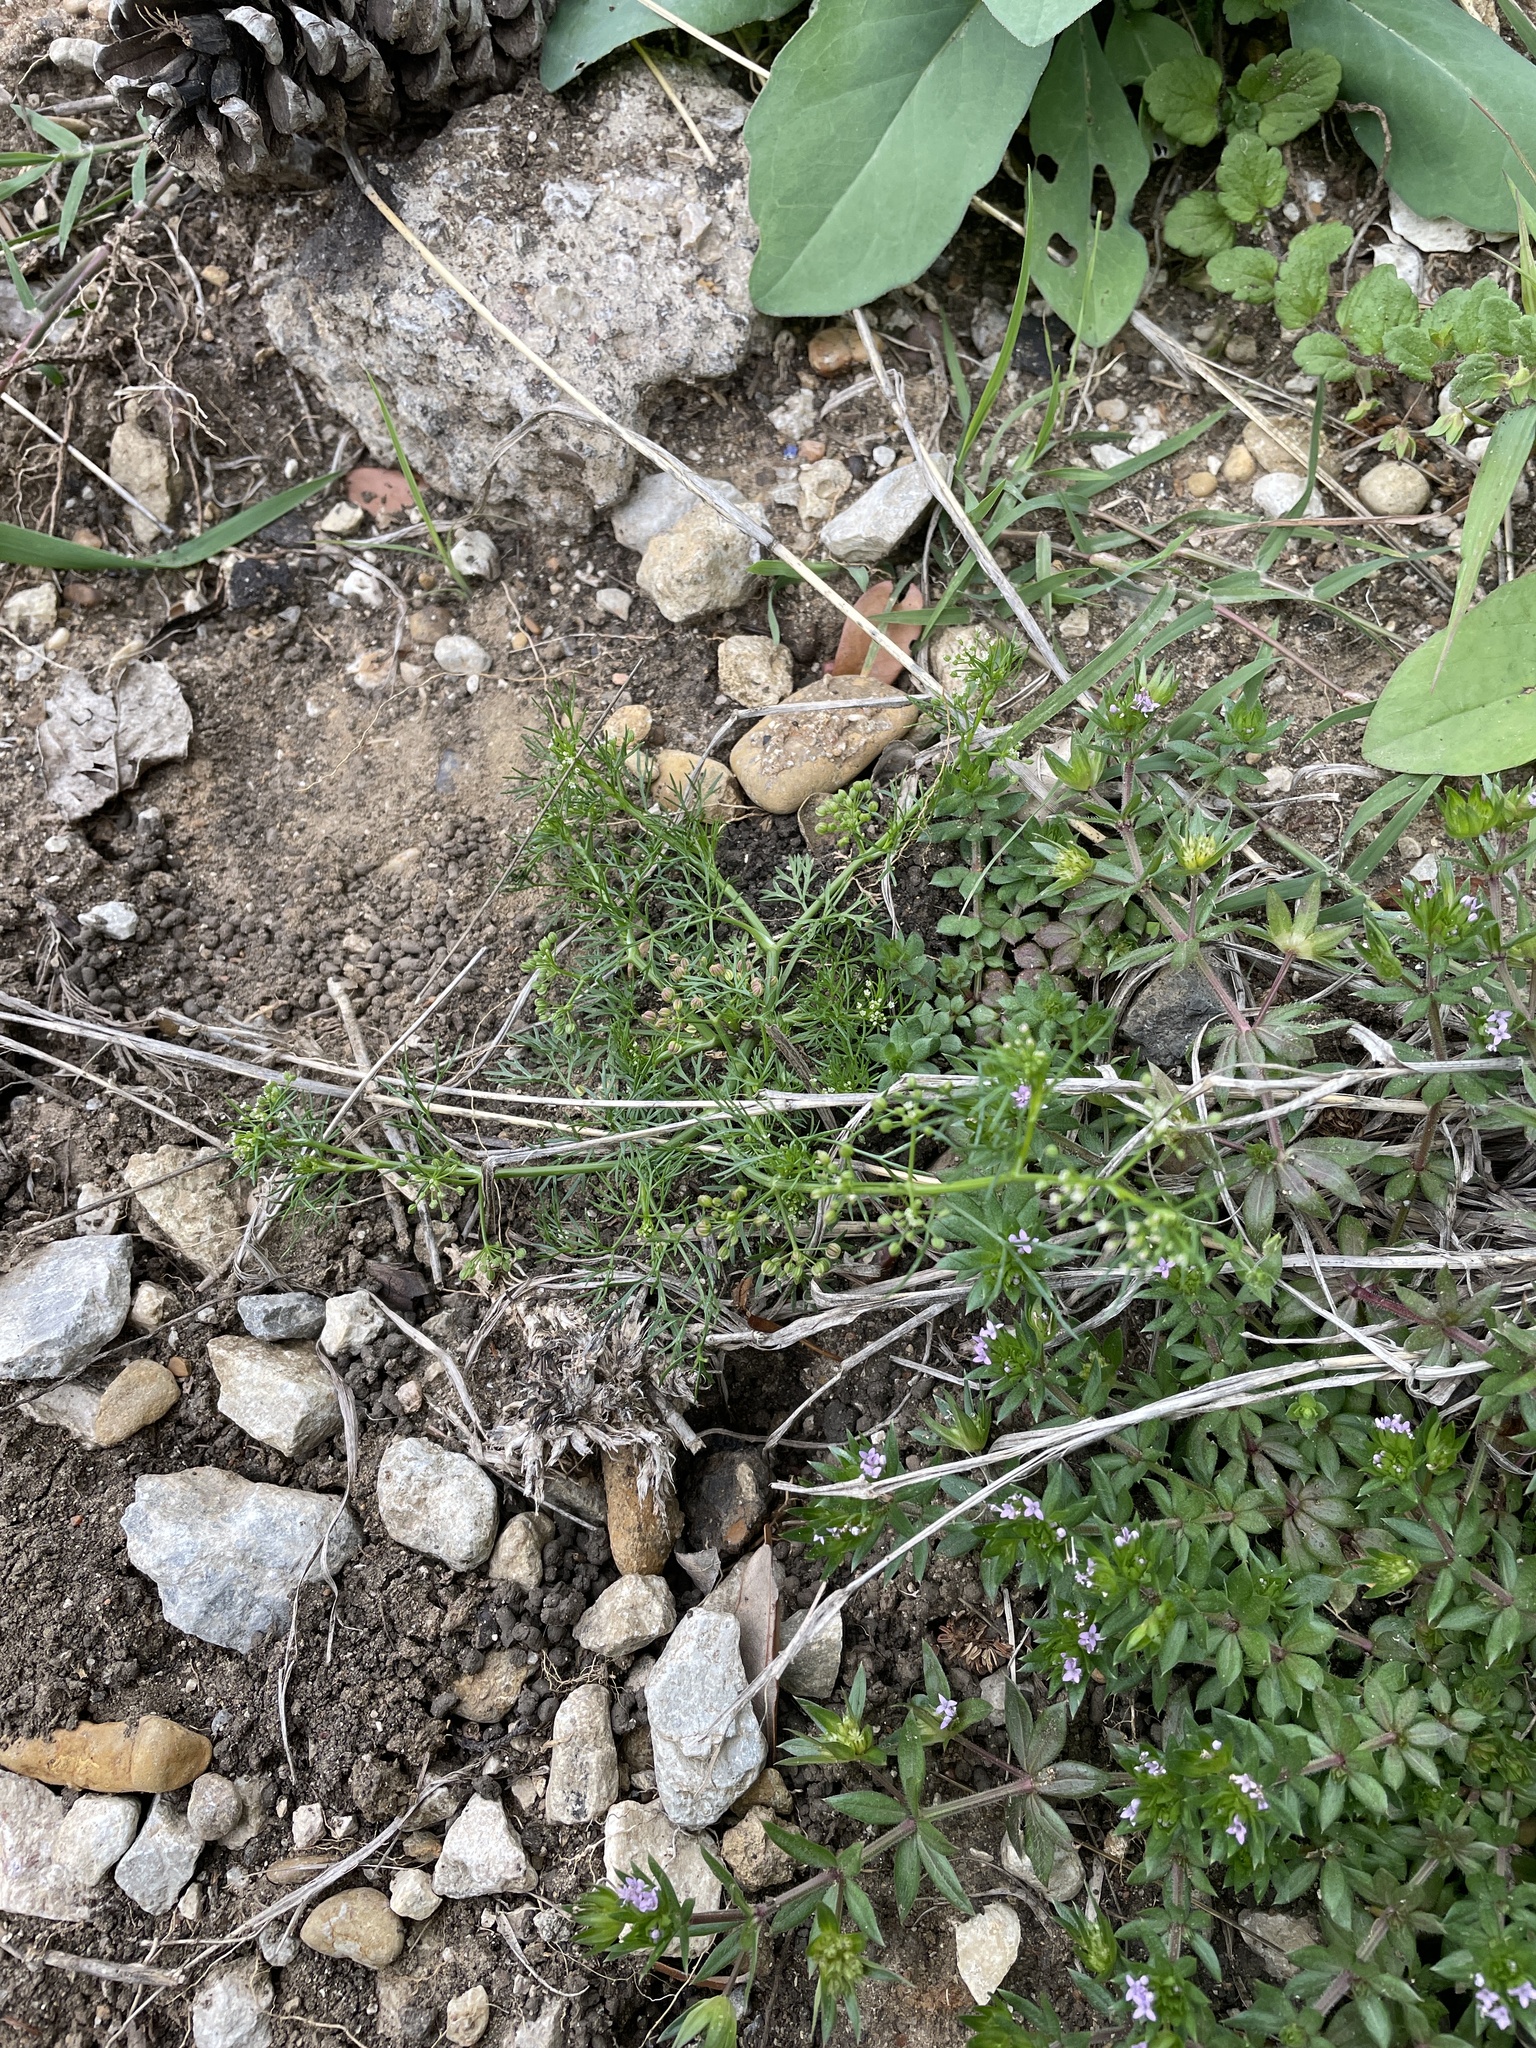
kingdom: Plantae
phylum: Tracheophyta
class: Magnoliopsida
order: Apiales
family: Apiaceae
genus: Cyclospermum
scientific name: Cyclospermum leptophyllum
